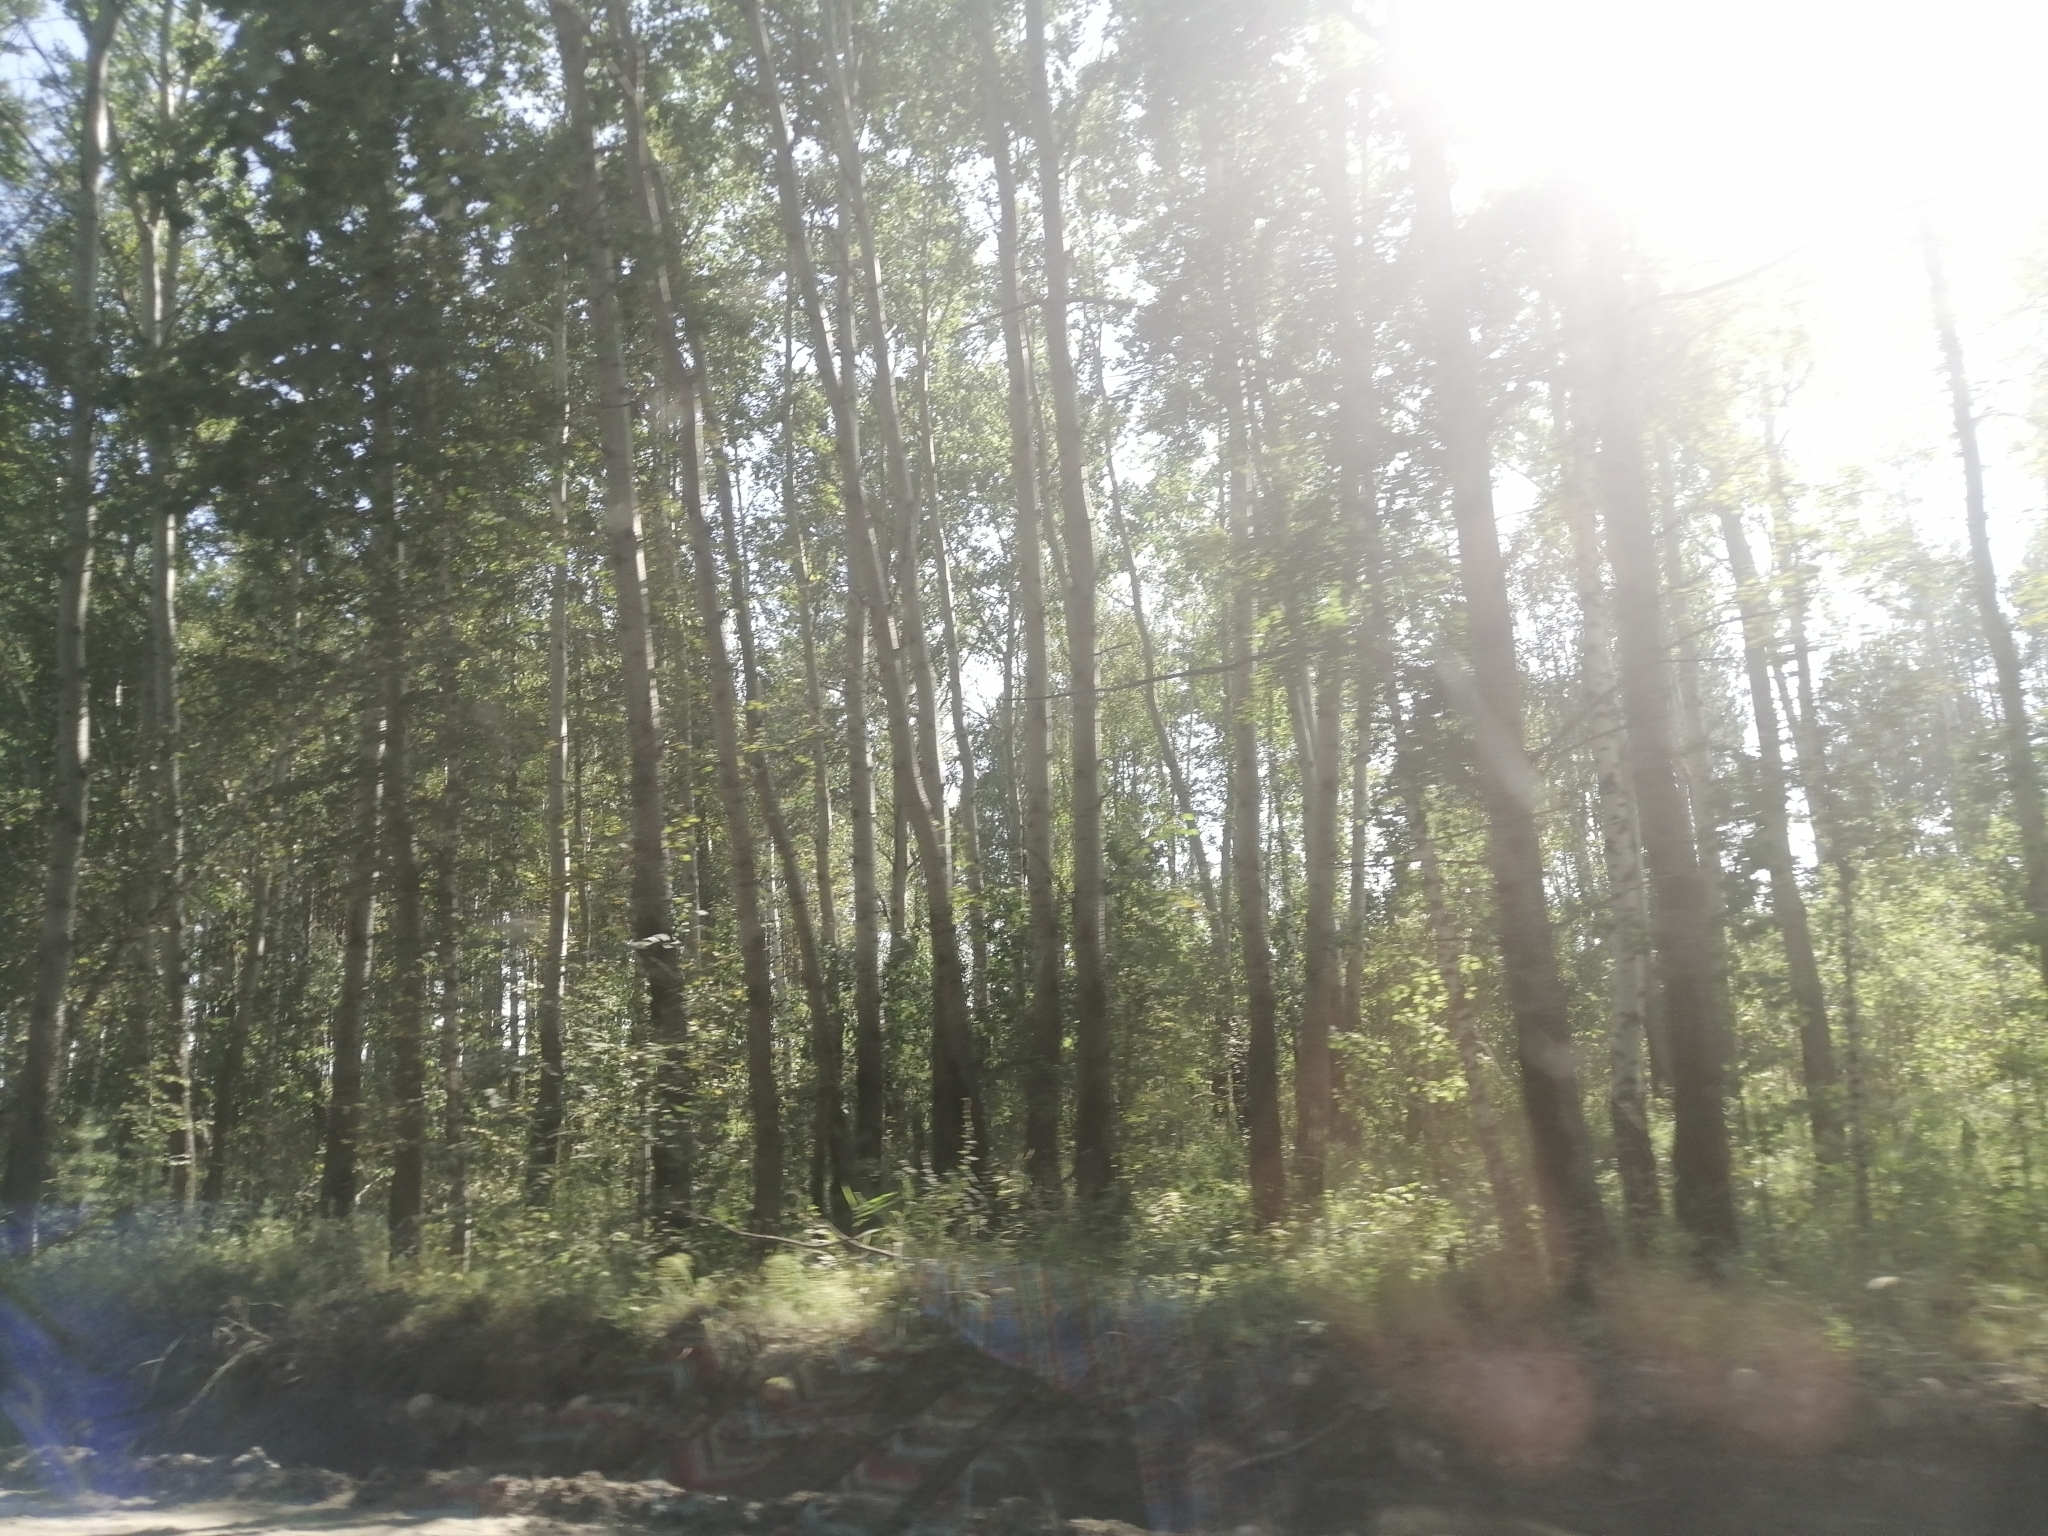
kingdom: Plantae
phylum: Tracheophyta
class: Pinopsida
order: Pinales
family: Pinaceae
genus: Pinus
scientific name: Pinus sylvestris
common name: Scots pine
